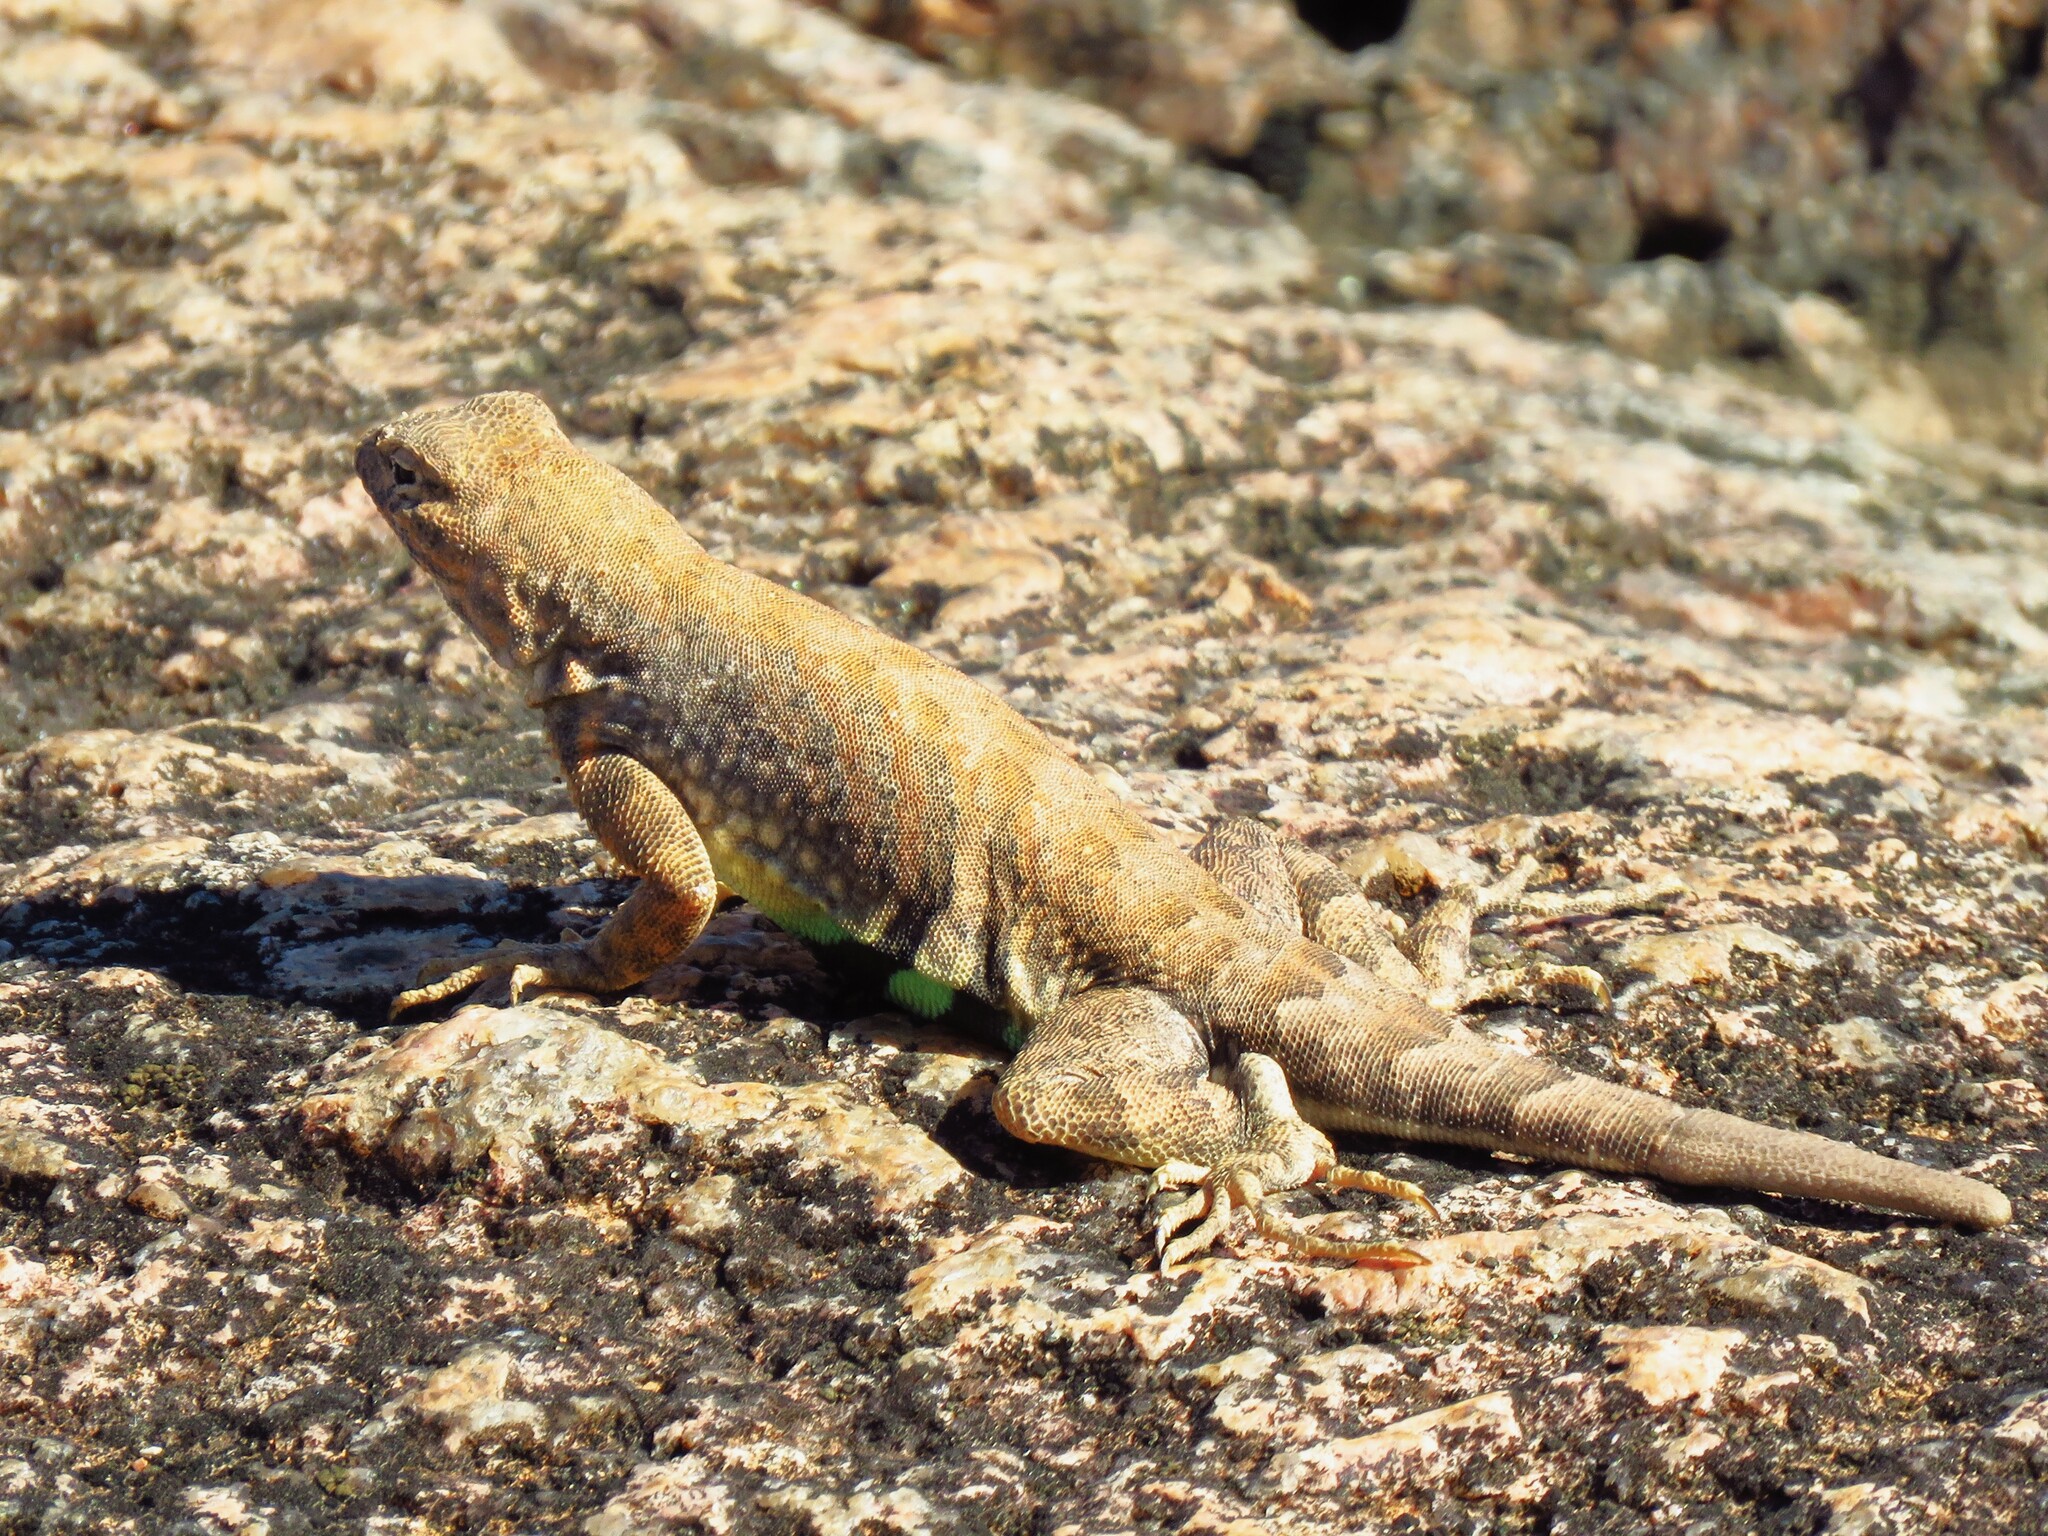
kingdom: Animalia
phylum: Chordata
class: Squamata
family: Phrynosomatidae
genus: Cophosaurus
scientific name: Cophosaurus texanus
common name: Greater earless lizard
